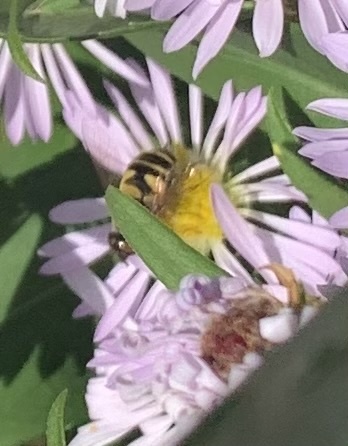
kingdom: Animalia
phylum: Arthropoda
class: Insecta
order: Diptera
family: Syrphidae
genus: Eristalis
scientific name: Eristalis transversa
